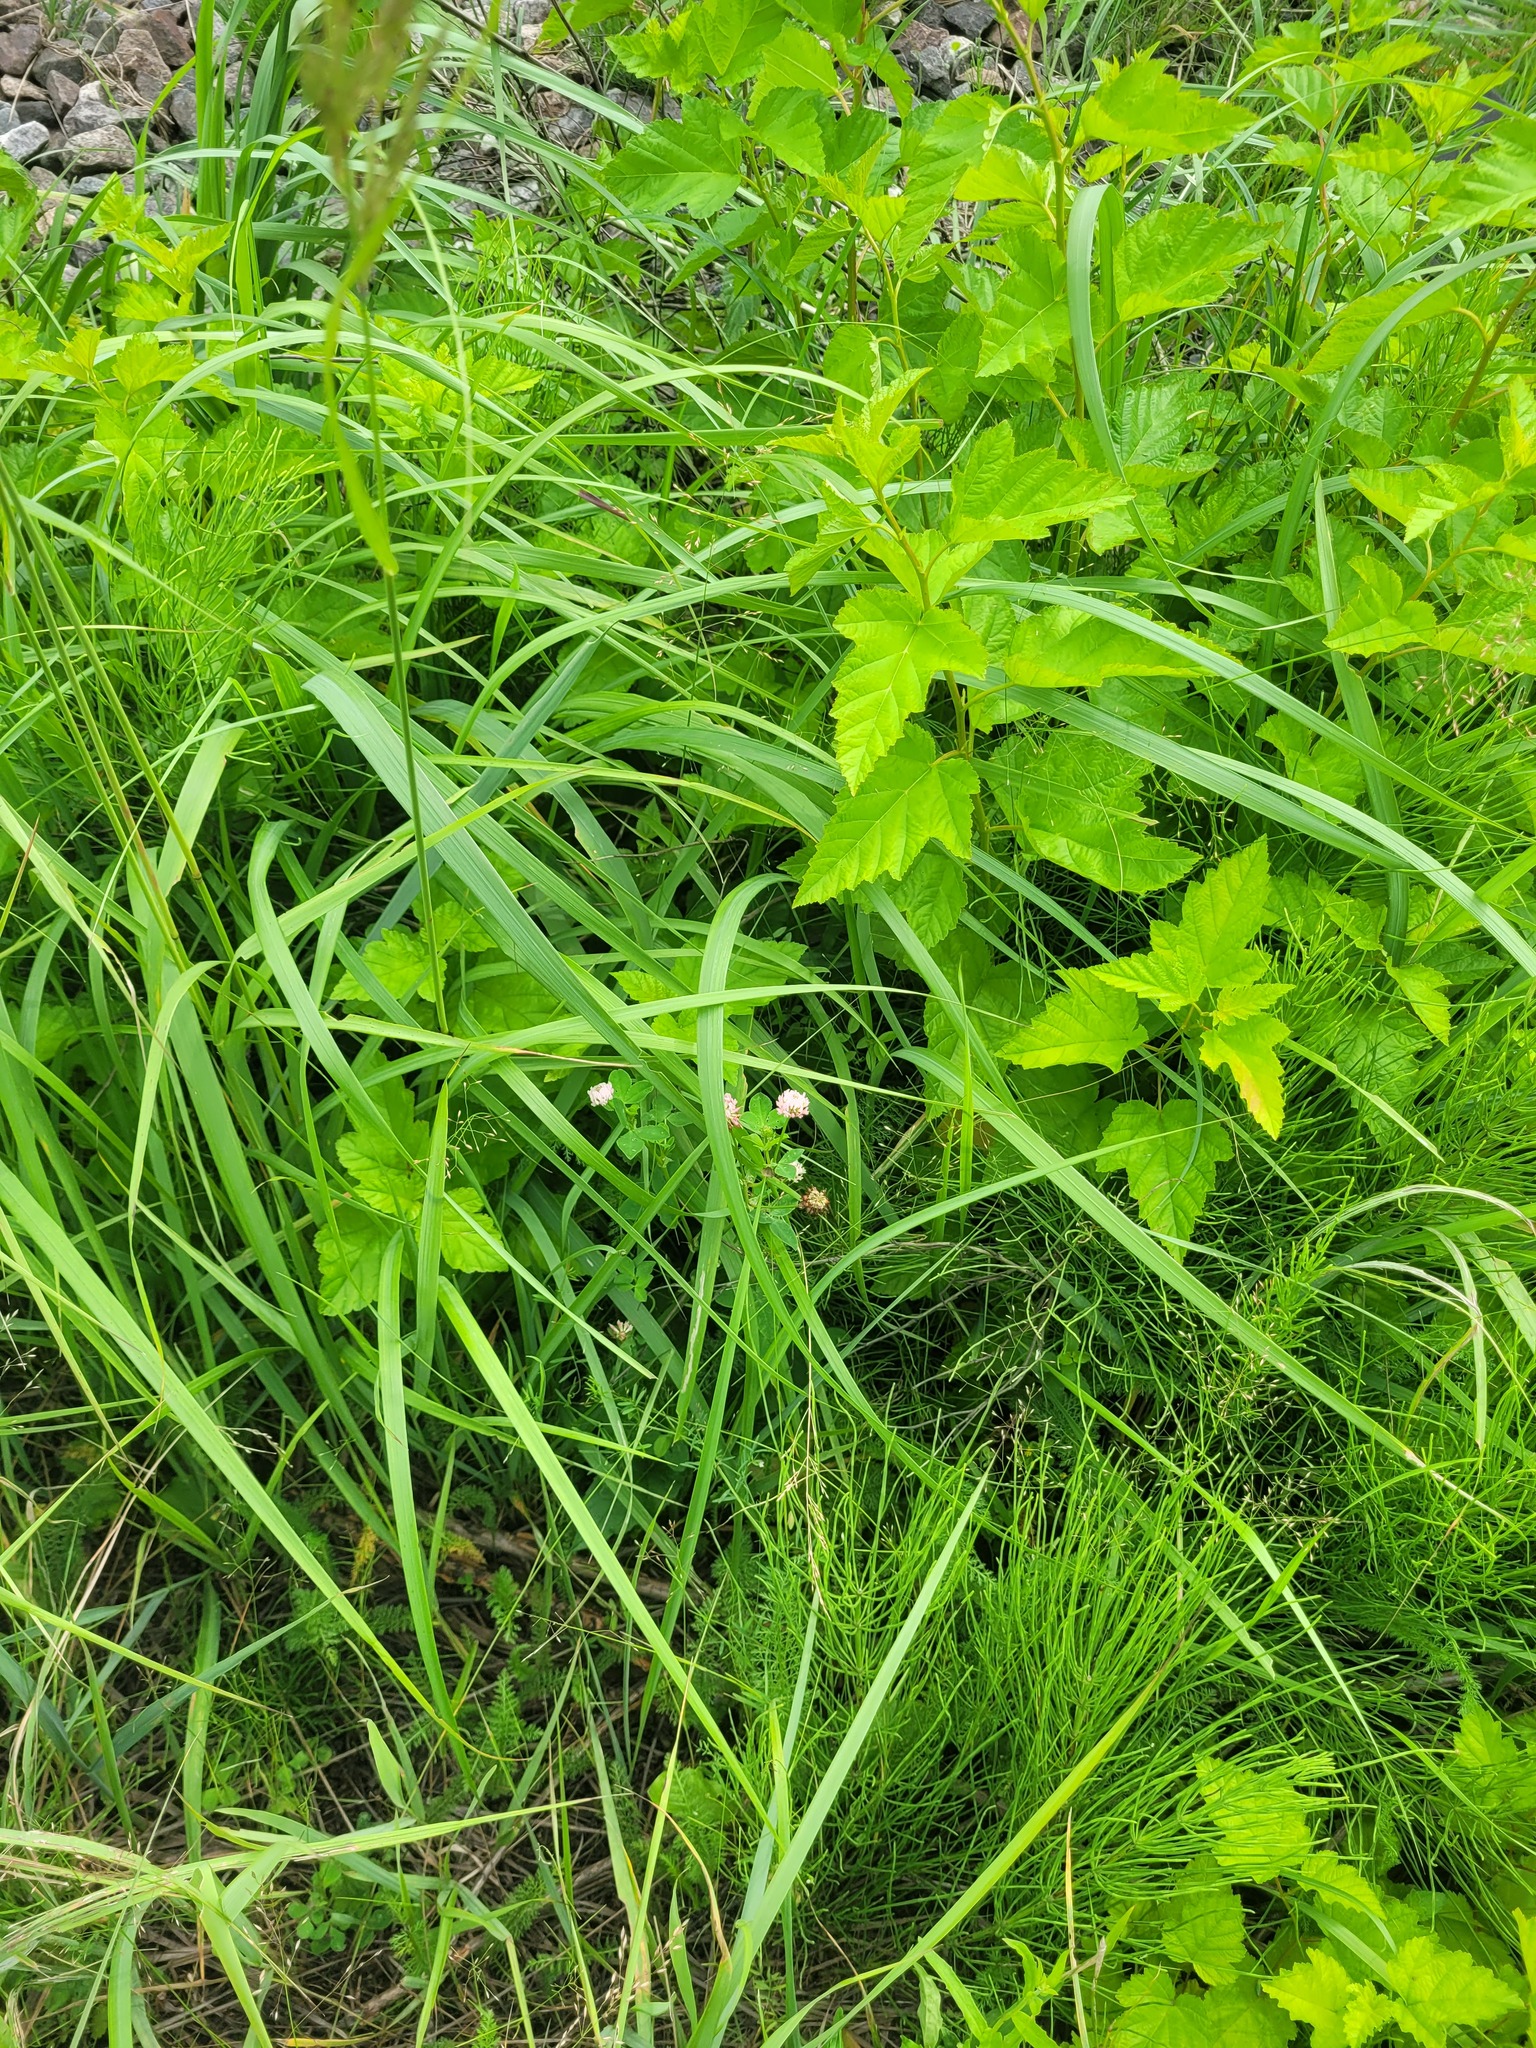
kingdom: Plantae
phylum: Tracheophyta
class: Magnoliopsida
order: Fabales
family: Fabaceae
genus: Trifolium
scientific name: Trifolium hybridum
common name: Alsike clover
